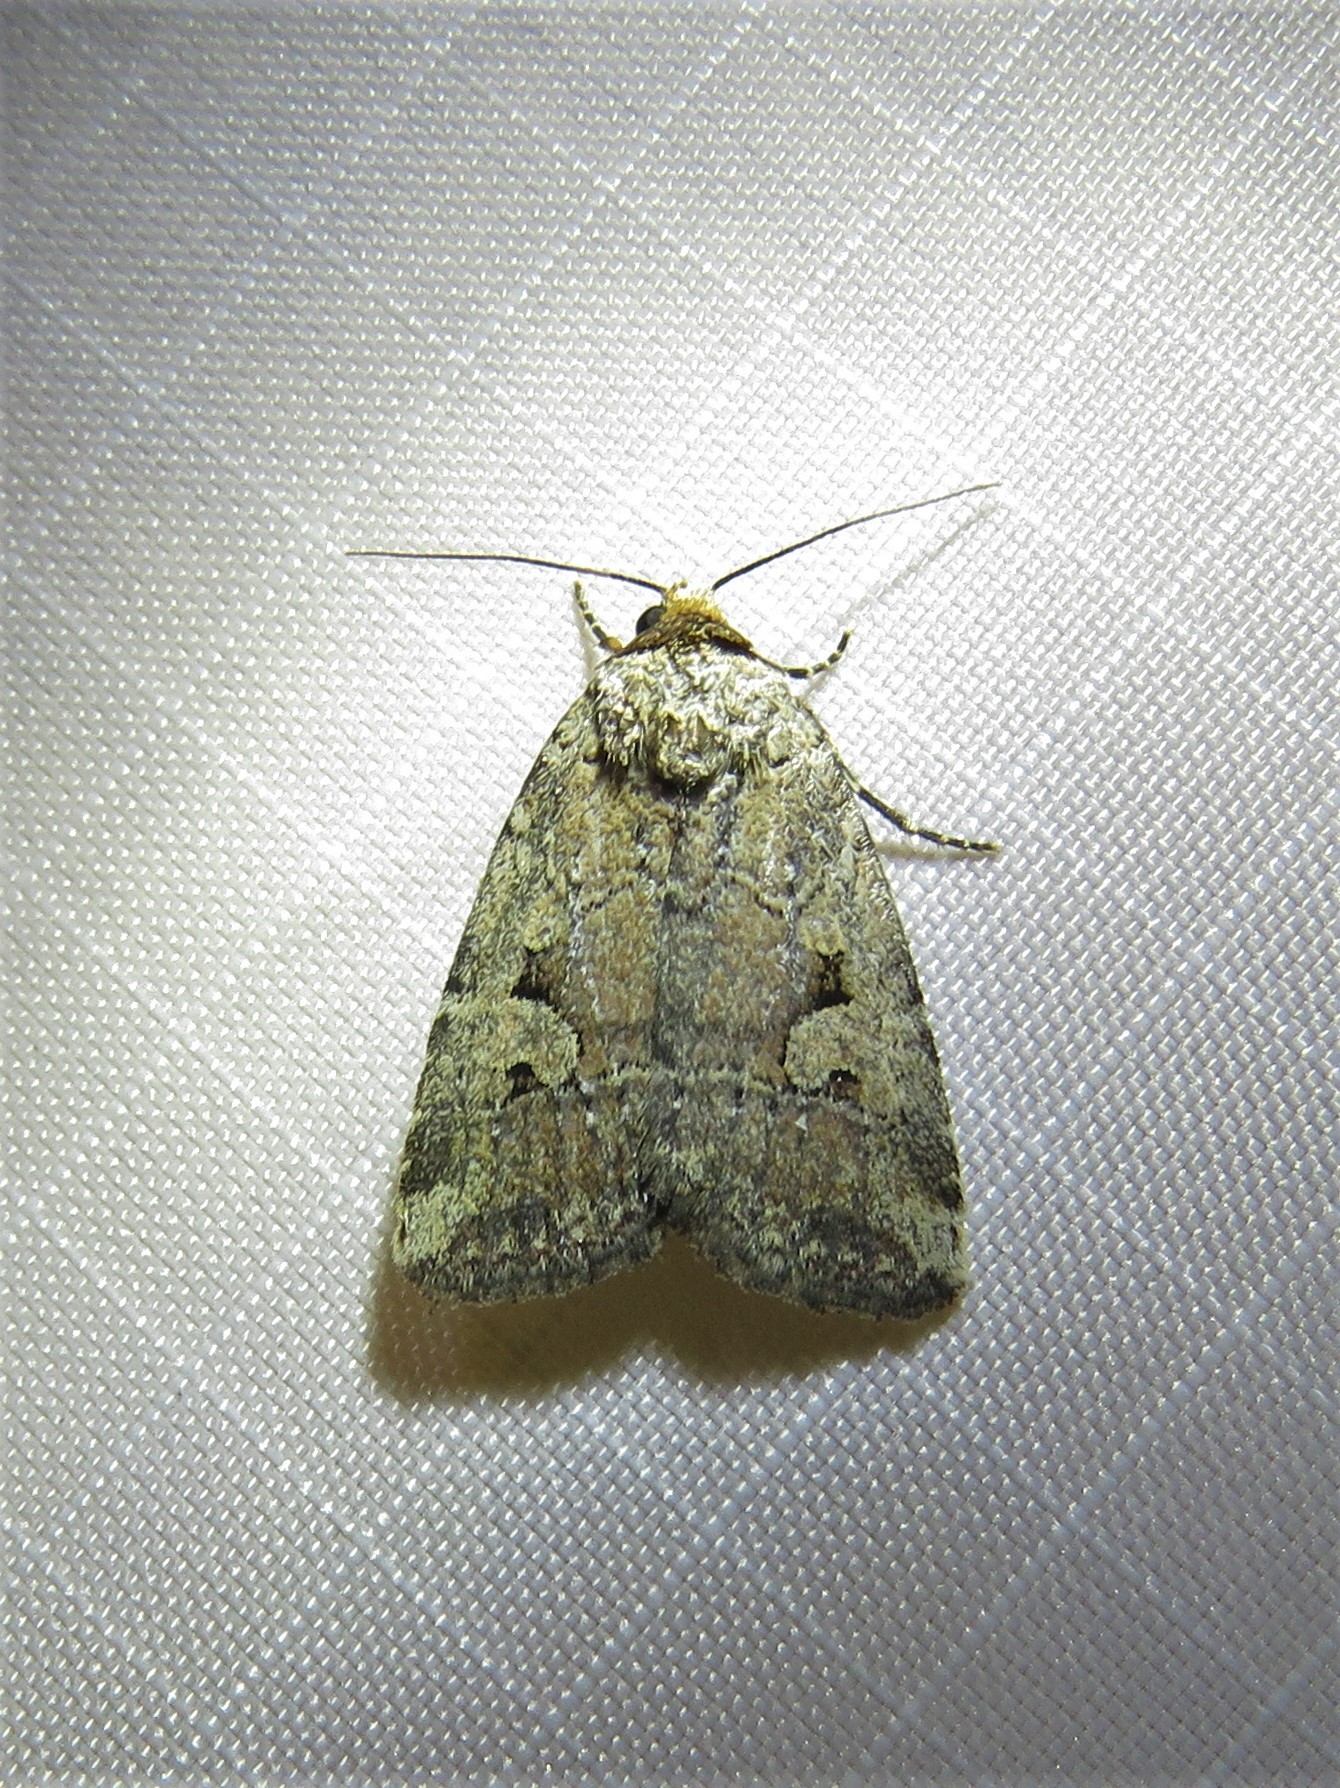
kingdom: Animalia
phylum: Arthropoda
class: Insecta
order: Lepidoptera
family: Noctuidae
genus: Elaphria
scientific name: Elaphria chalcedonia
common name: Chalcedony midget
